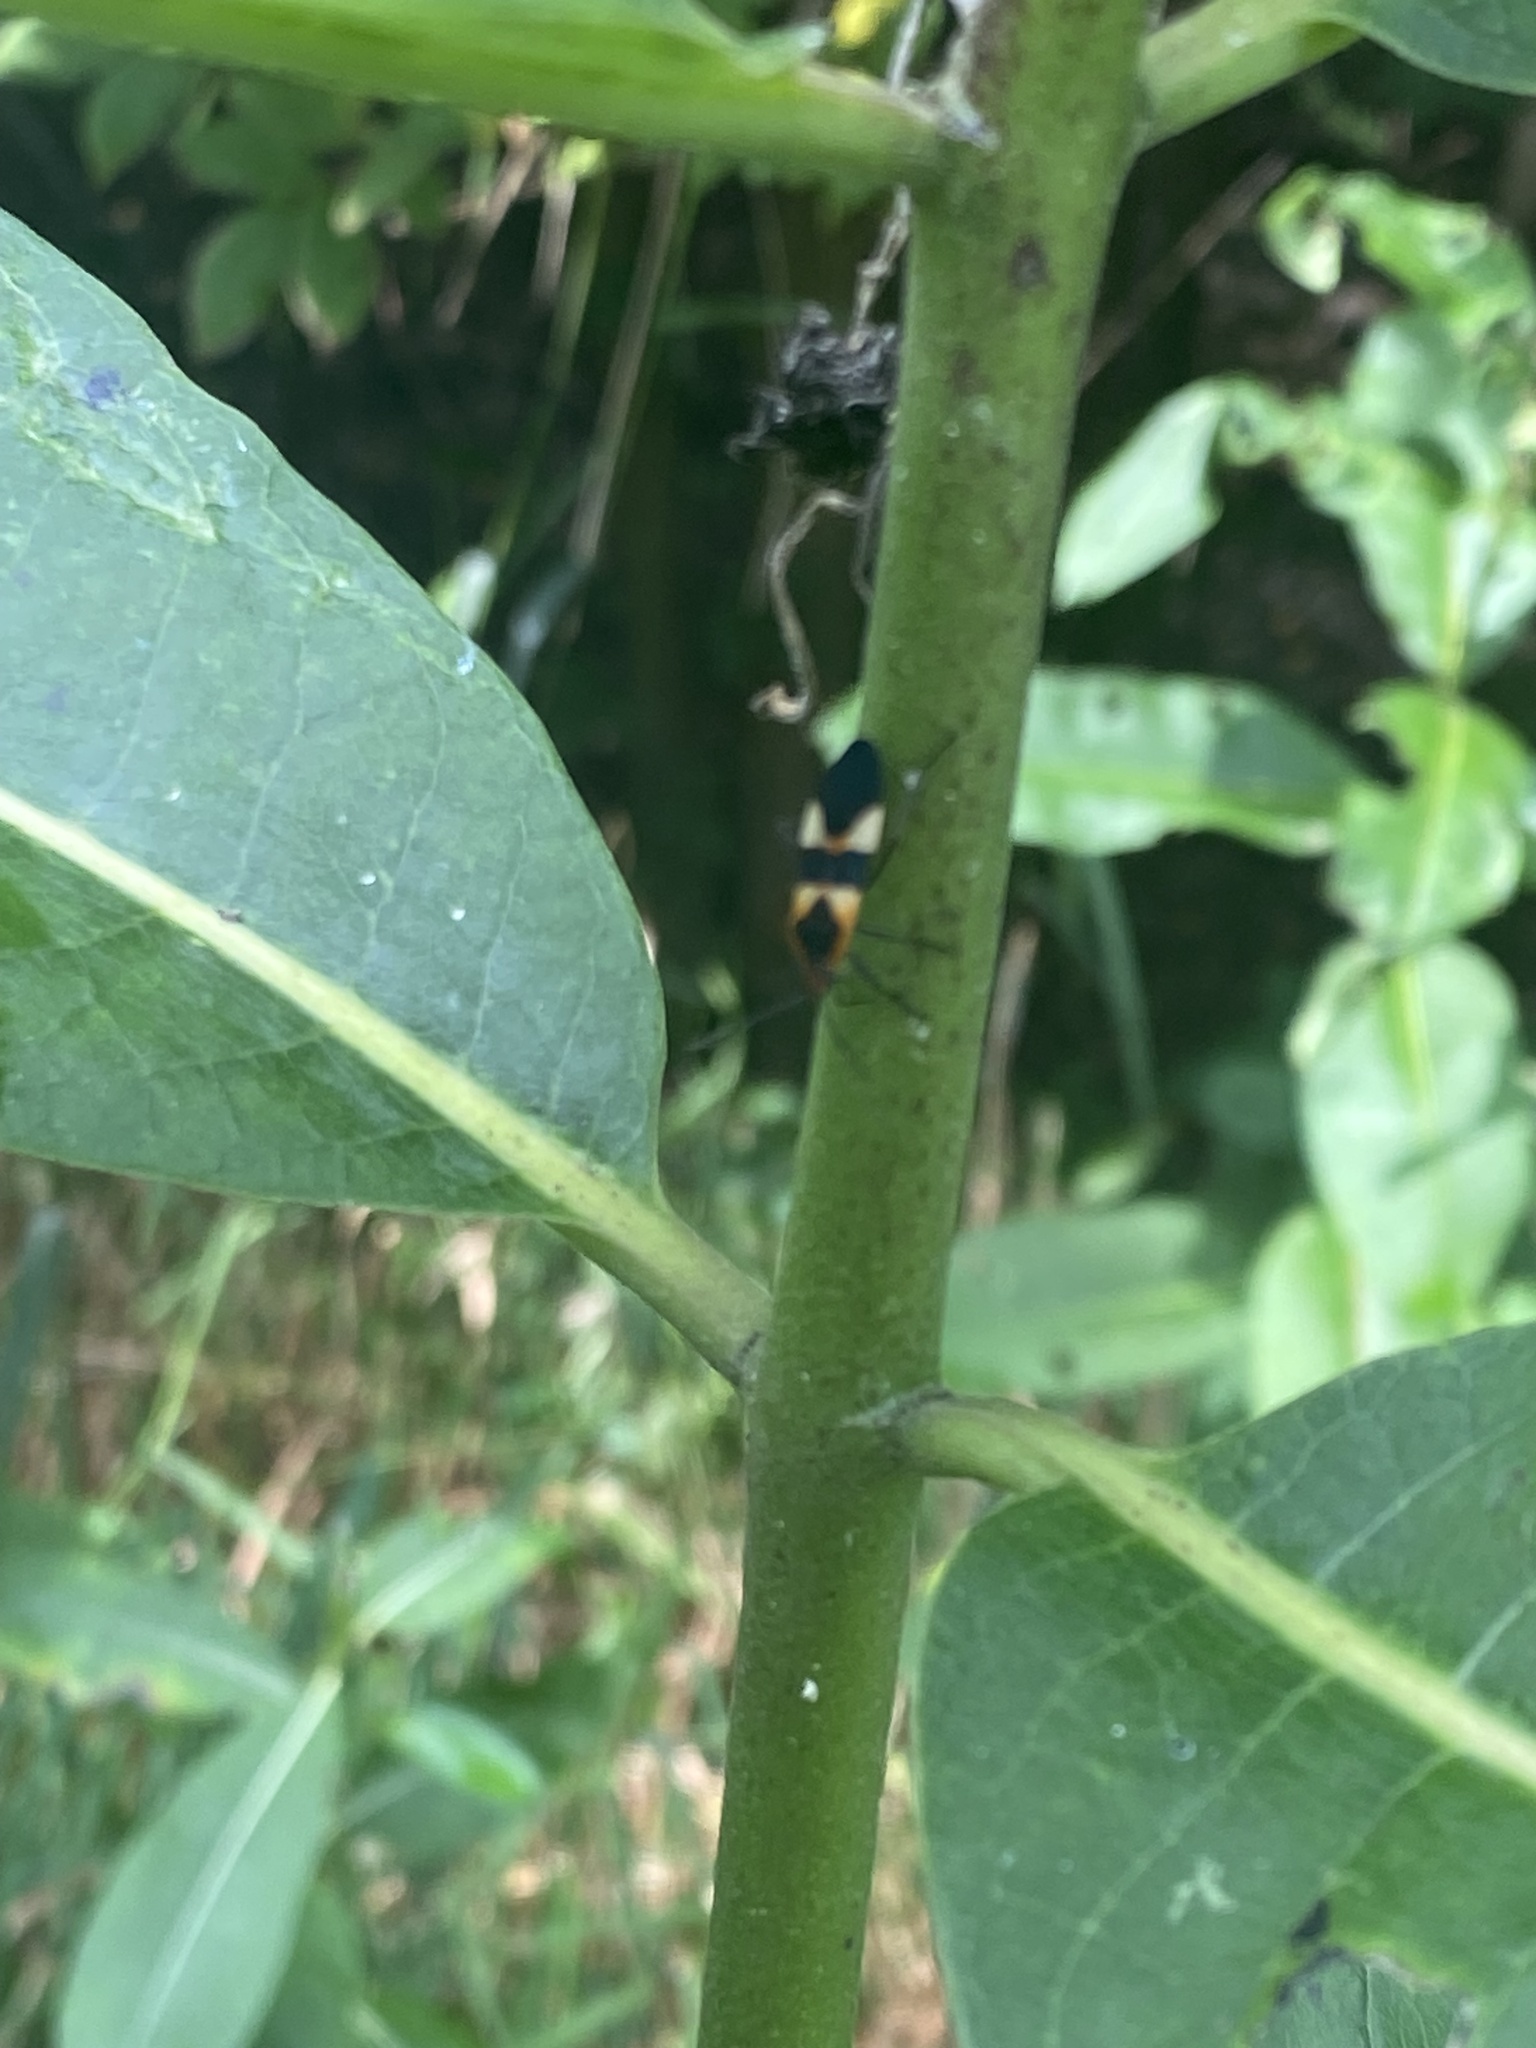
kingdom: Animalia
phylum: Arthropoda
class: Insecta
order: Hemiptera
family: Lygaeidae
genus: Oncopeltus
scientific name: Oncopeltus fasciatus
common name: Large milkweed bug
